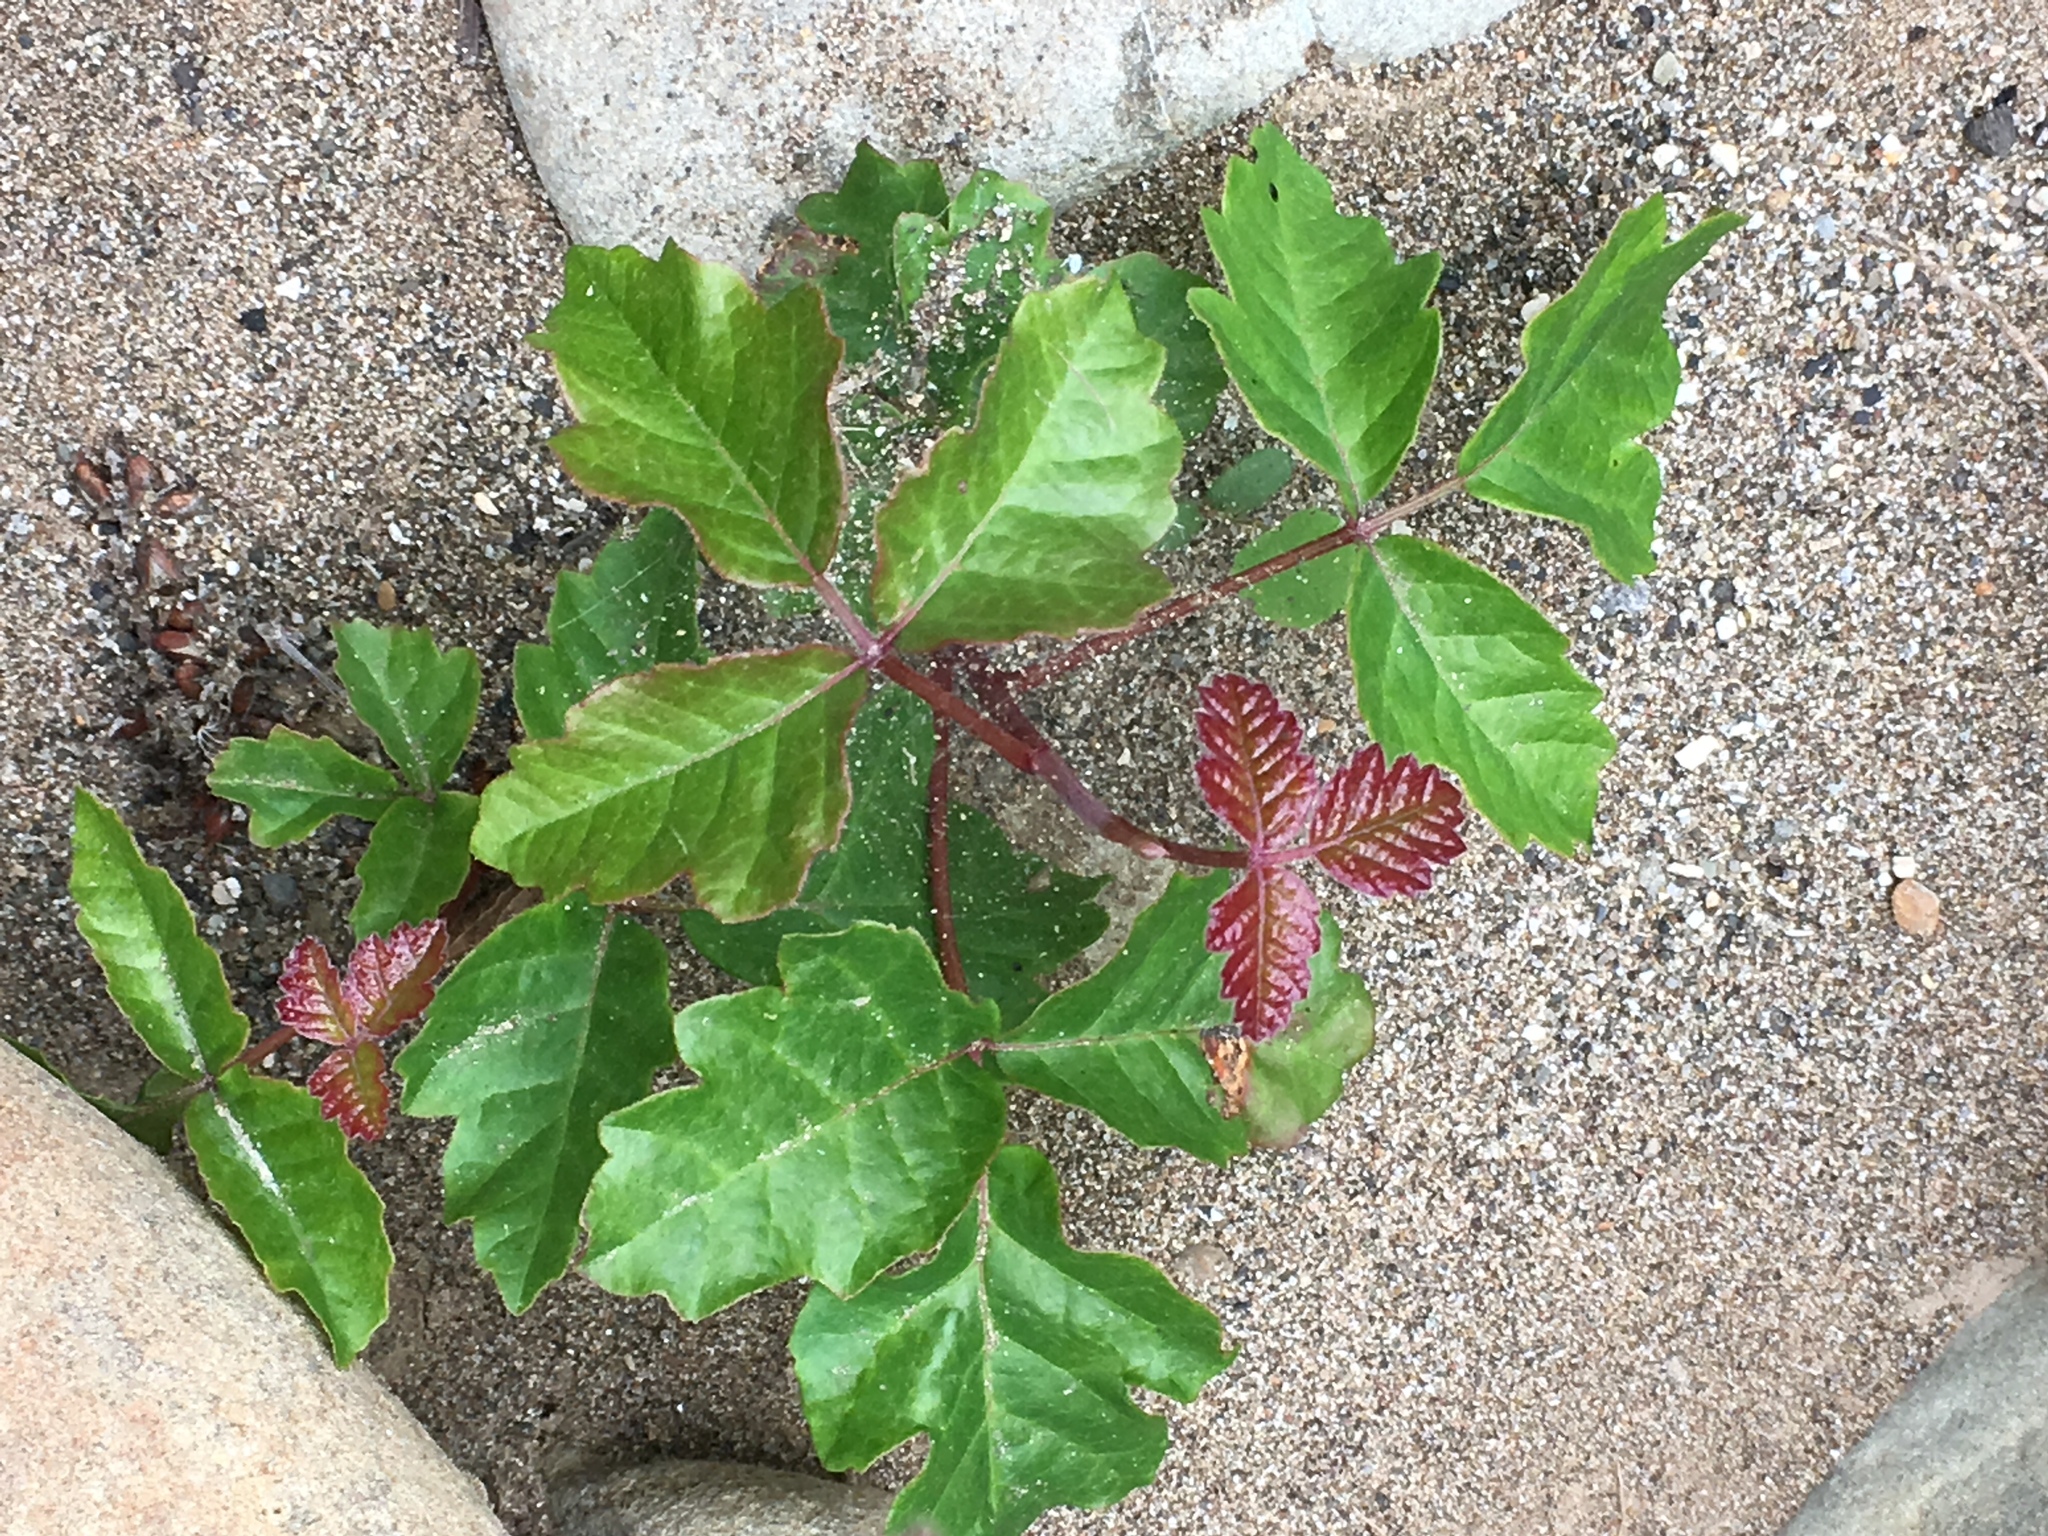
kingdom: Plantae
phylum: Tracheophyta
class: Magnoliopsida
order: Sapindales
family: Anacardiaceae
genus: Toxicodendron
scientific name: Toxicodendron diversilobum
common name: Pacific poison-oak
